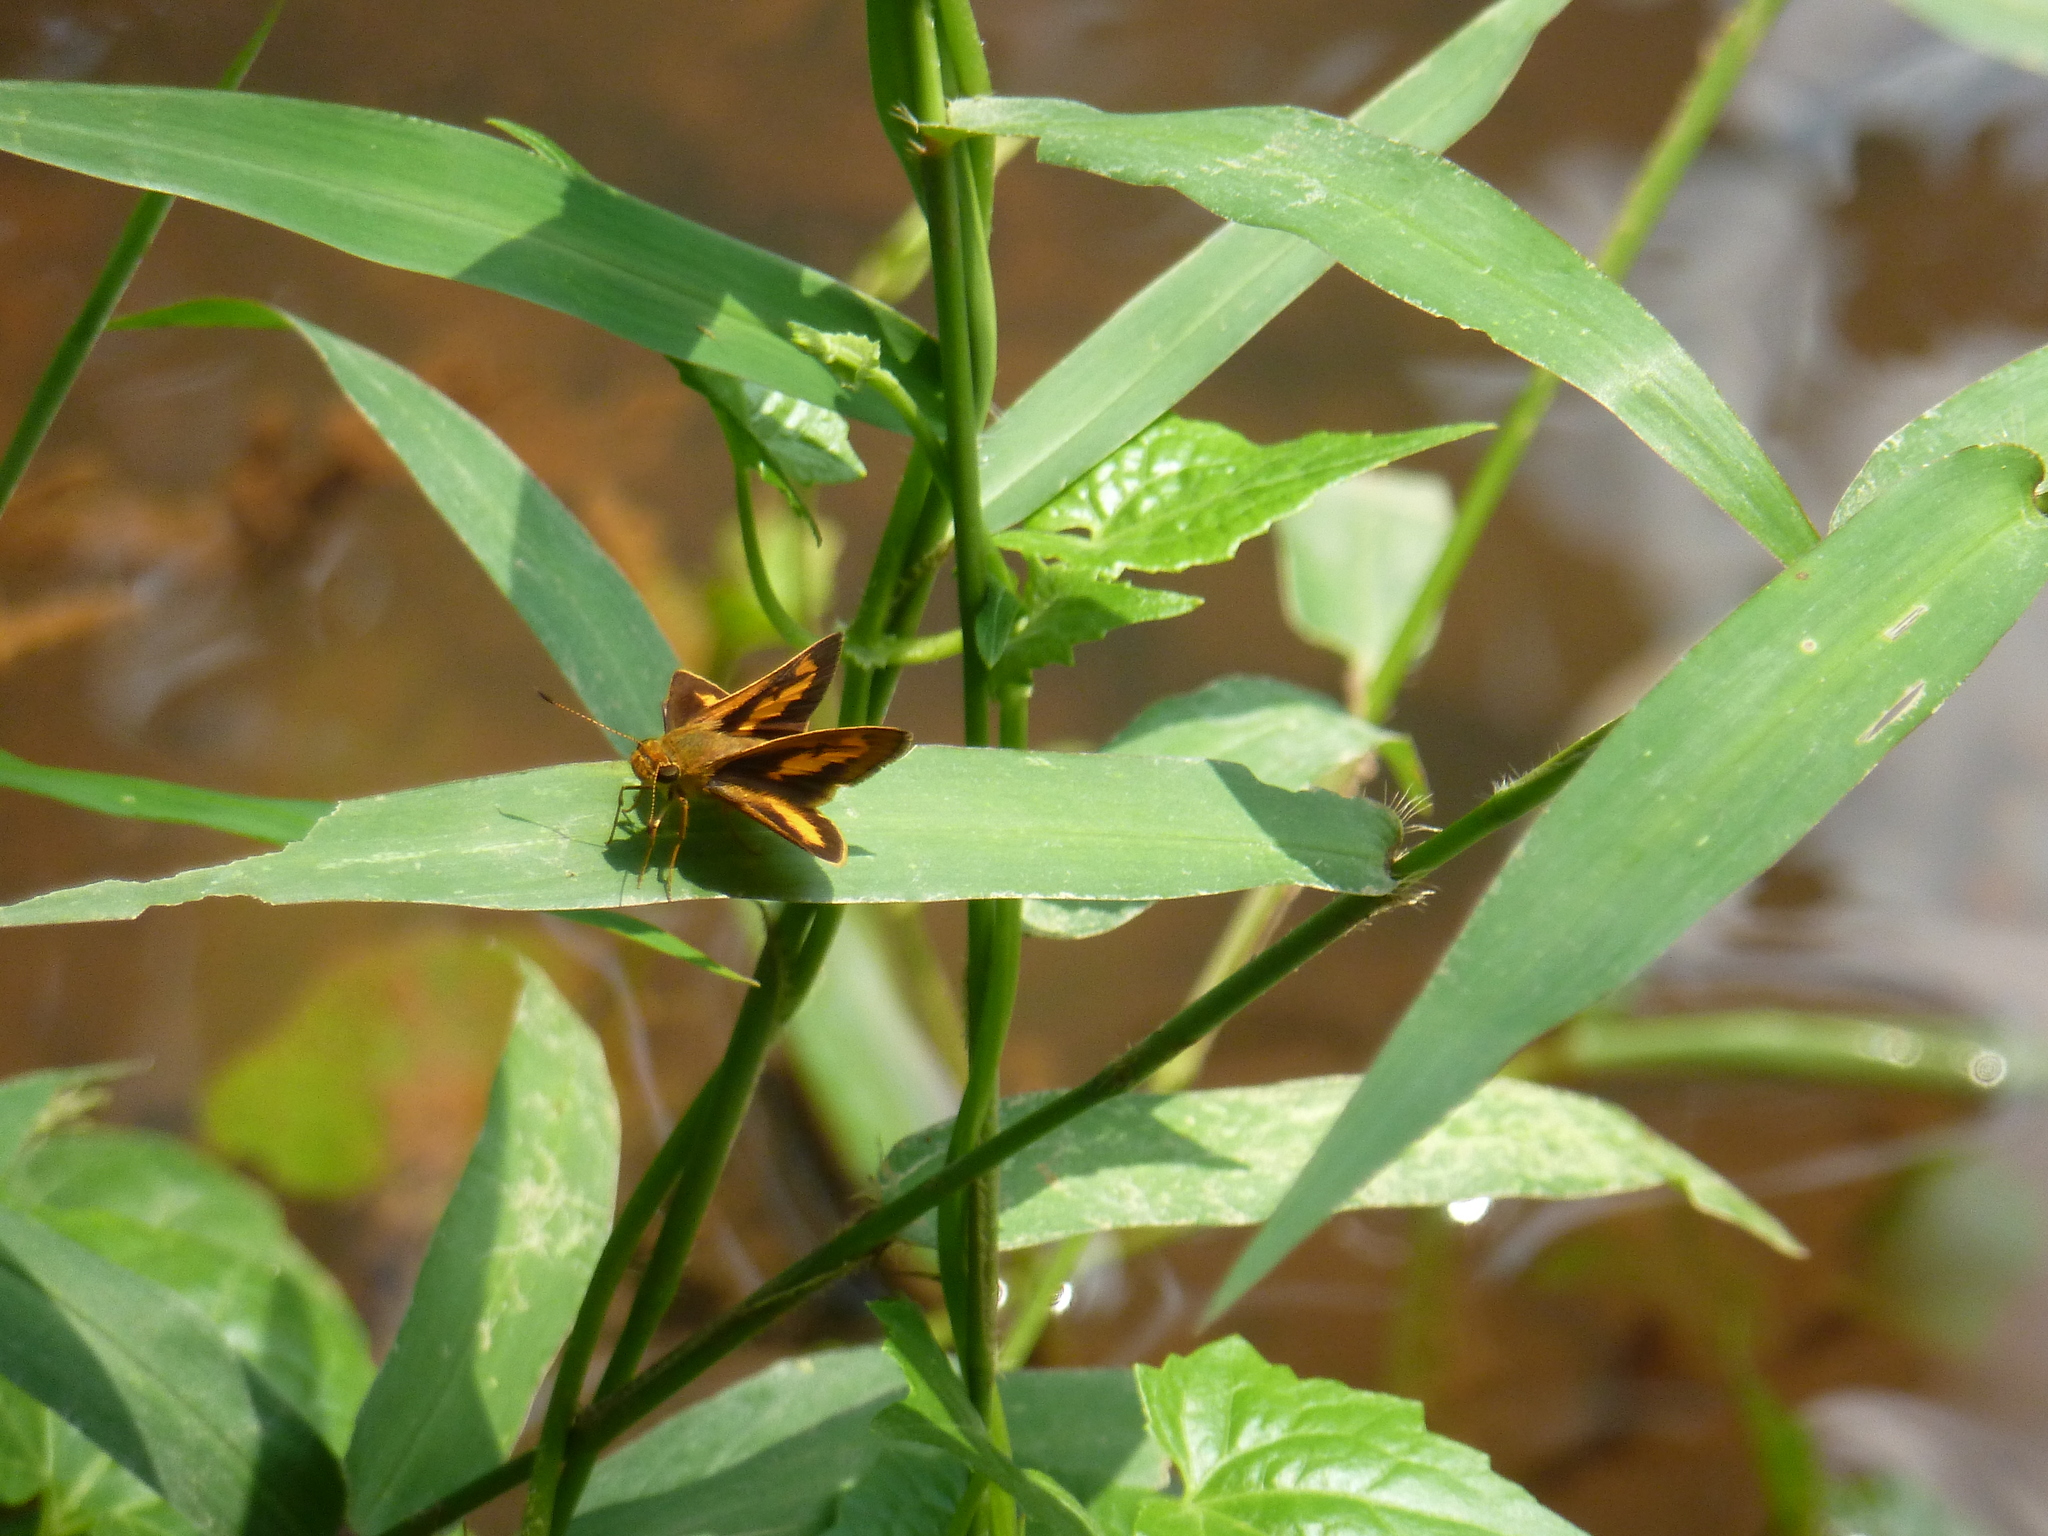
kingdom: Animalia
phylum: Arthropoda
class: Insecta
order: Lepidoptera
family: Hesperiidae
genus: Oriens
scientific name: Oriens gola
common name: Common dartlet
